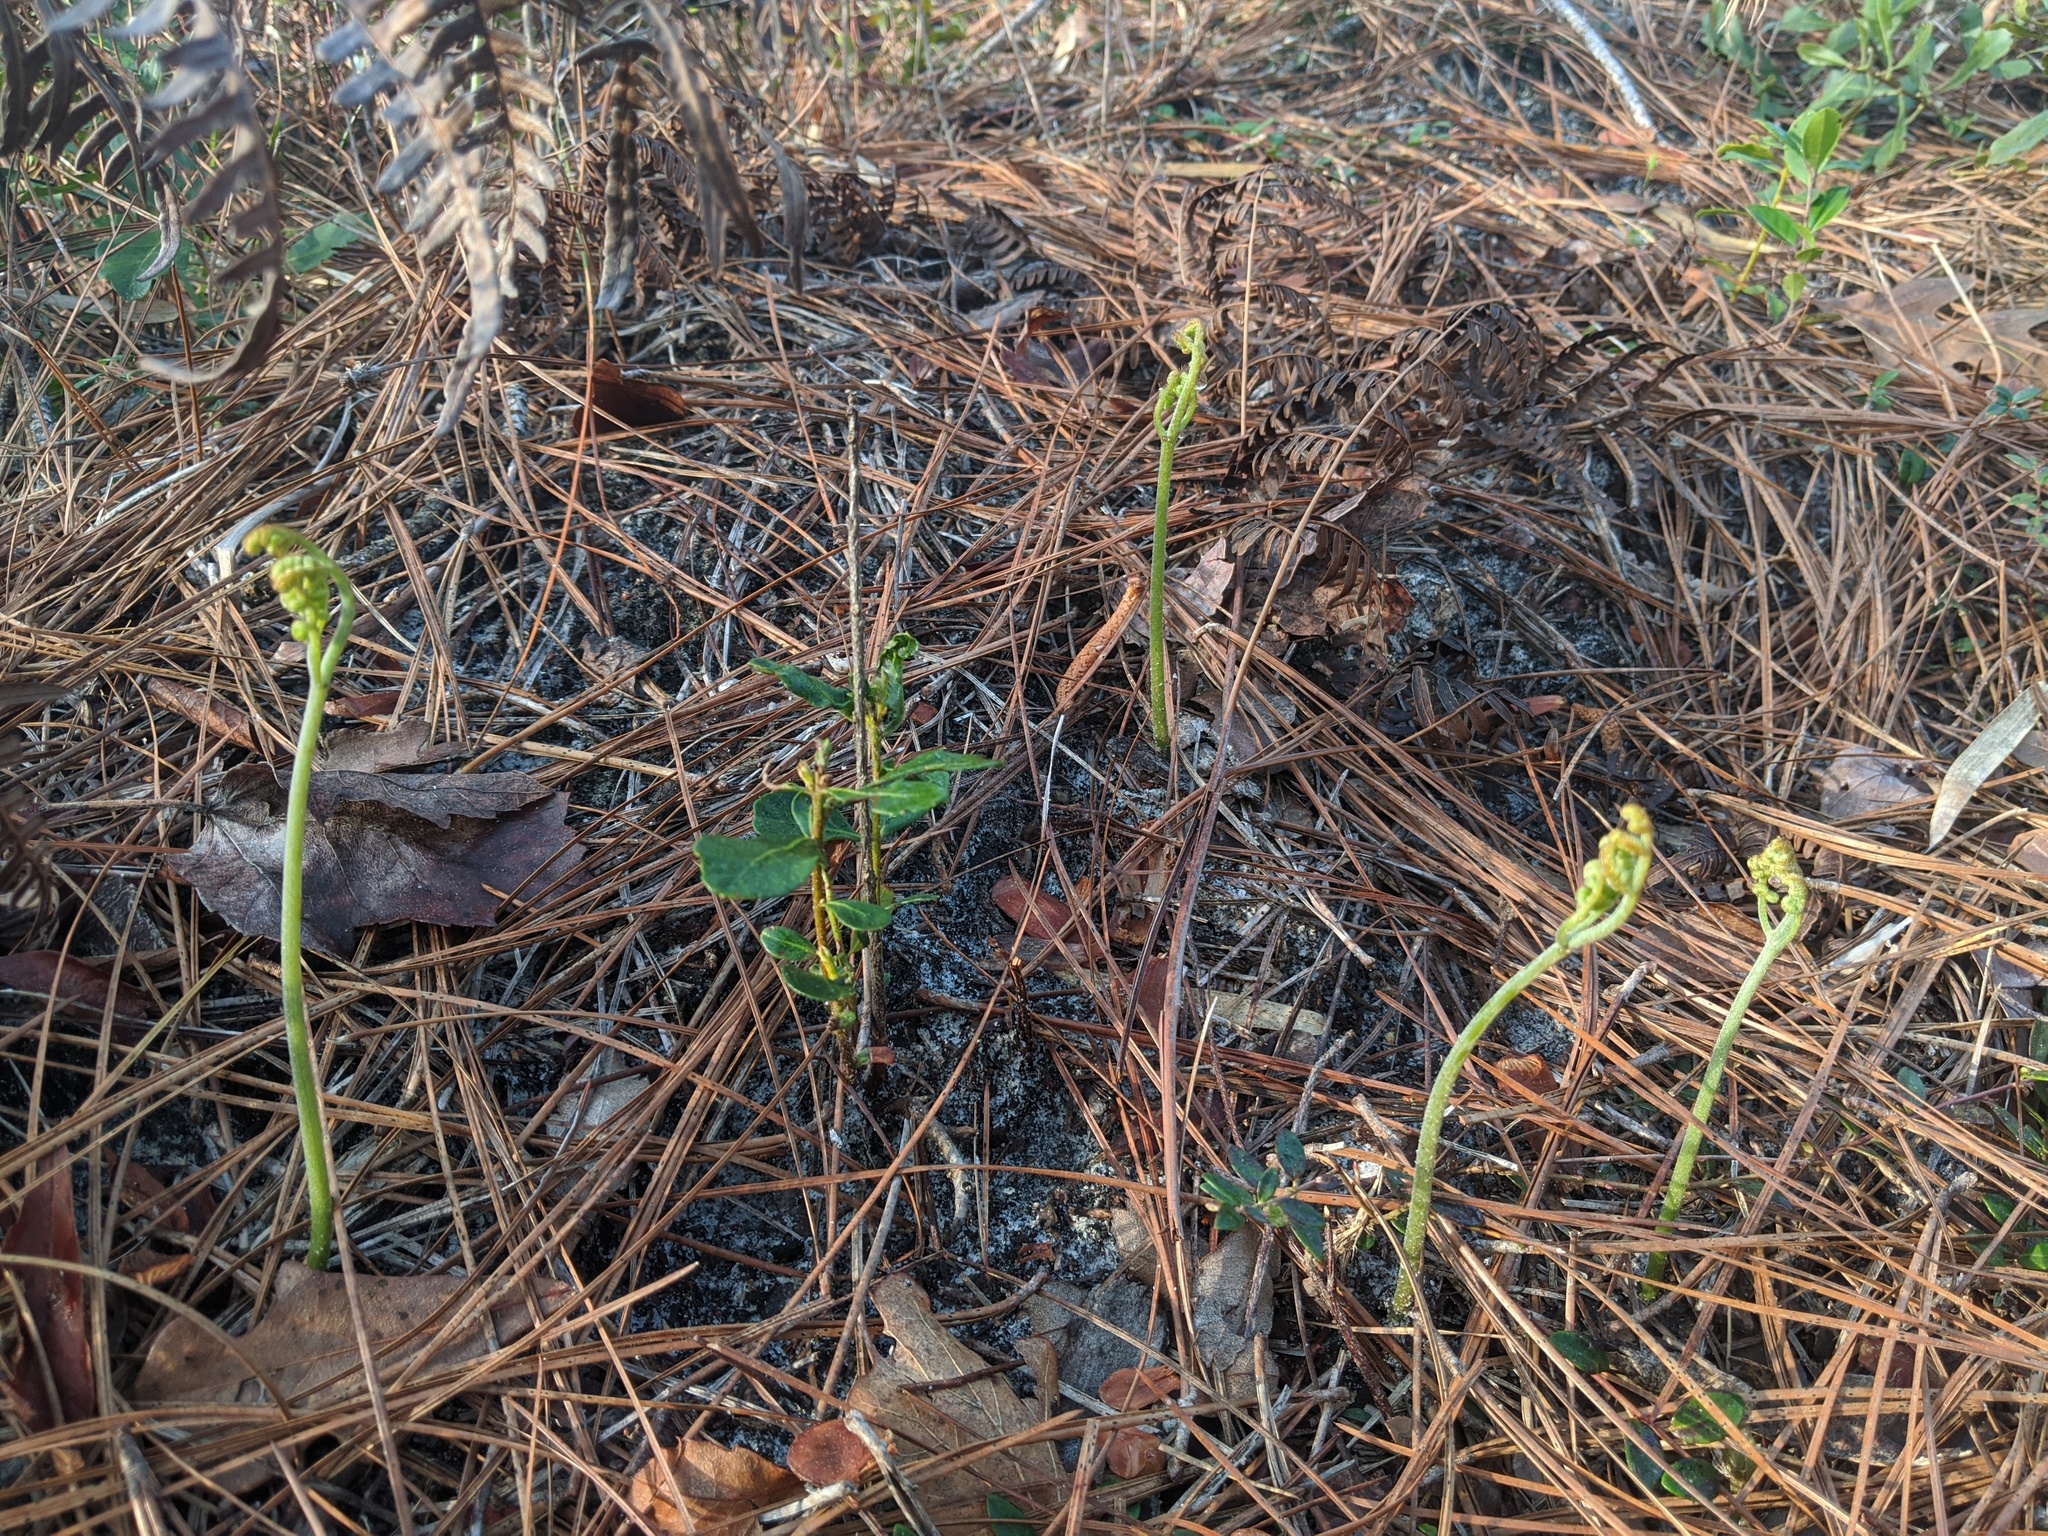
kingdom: Plantae
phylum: Tracheophyta
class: Polypodiopsida
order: Polypodiales
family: Dennstaedtiaceae
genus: Pteridium
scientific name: Pteridium aquilinum
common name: Bracken
